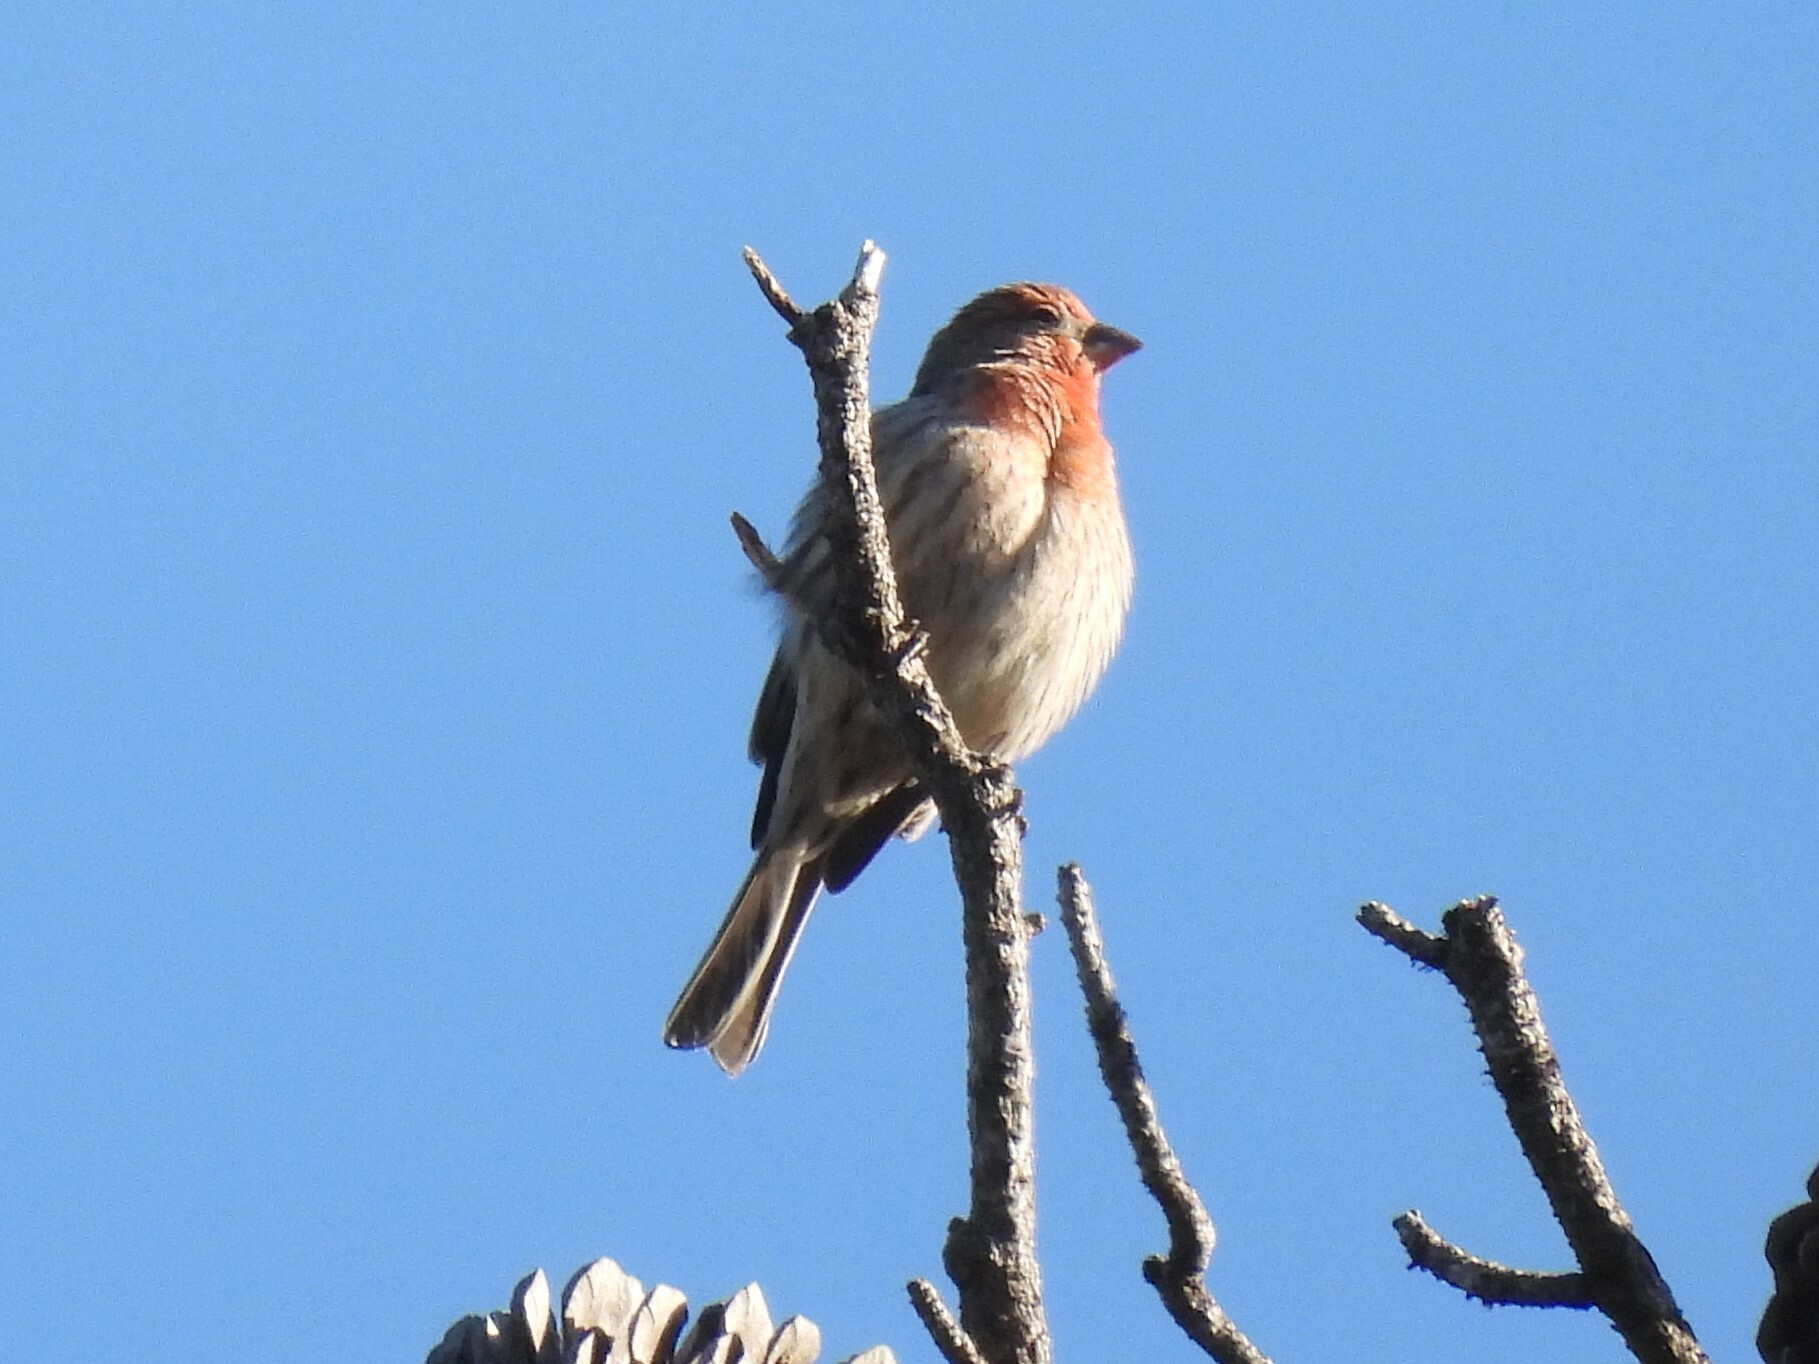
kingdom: Animalia
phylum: Chordata
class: Aves
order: Passeriformes
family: Fringillidae
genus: Haemorhous
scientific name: Haemorhous mexicanus
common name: House finch
